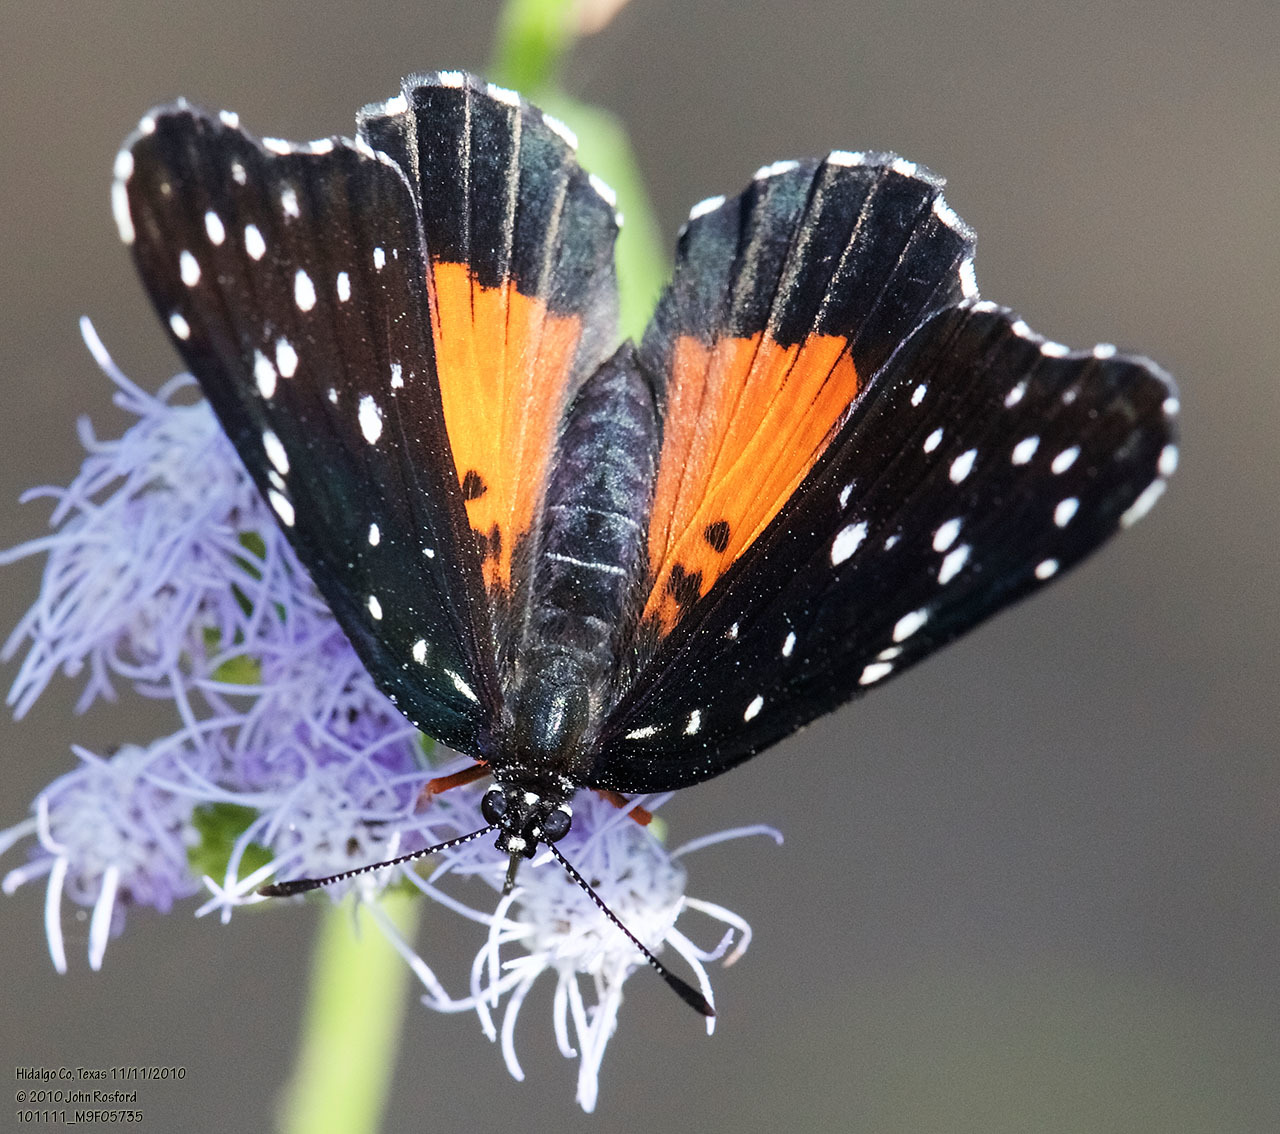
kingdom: Animalia
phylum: Arthropoda
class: Insecta
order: Lepidoptera
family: Nymphalidae
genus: Chlosyne
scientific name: Chlosyne janais
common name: Crimson patch
